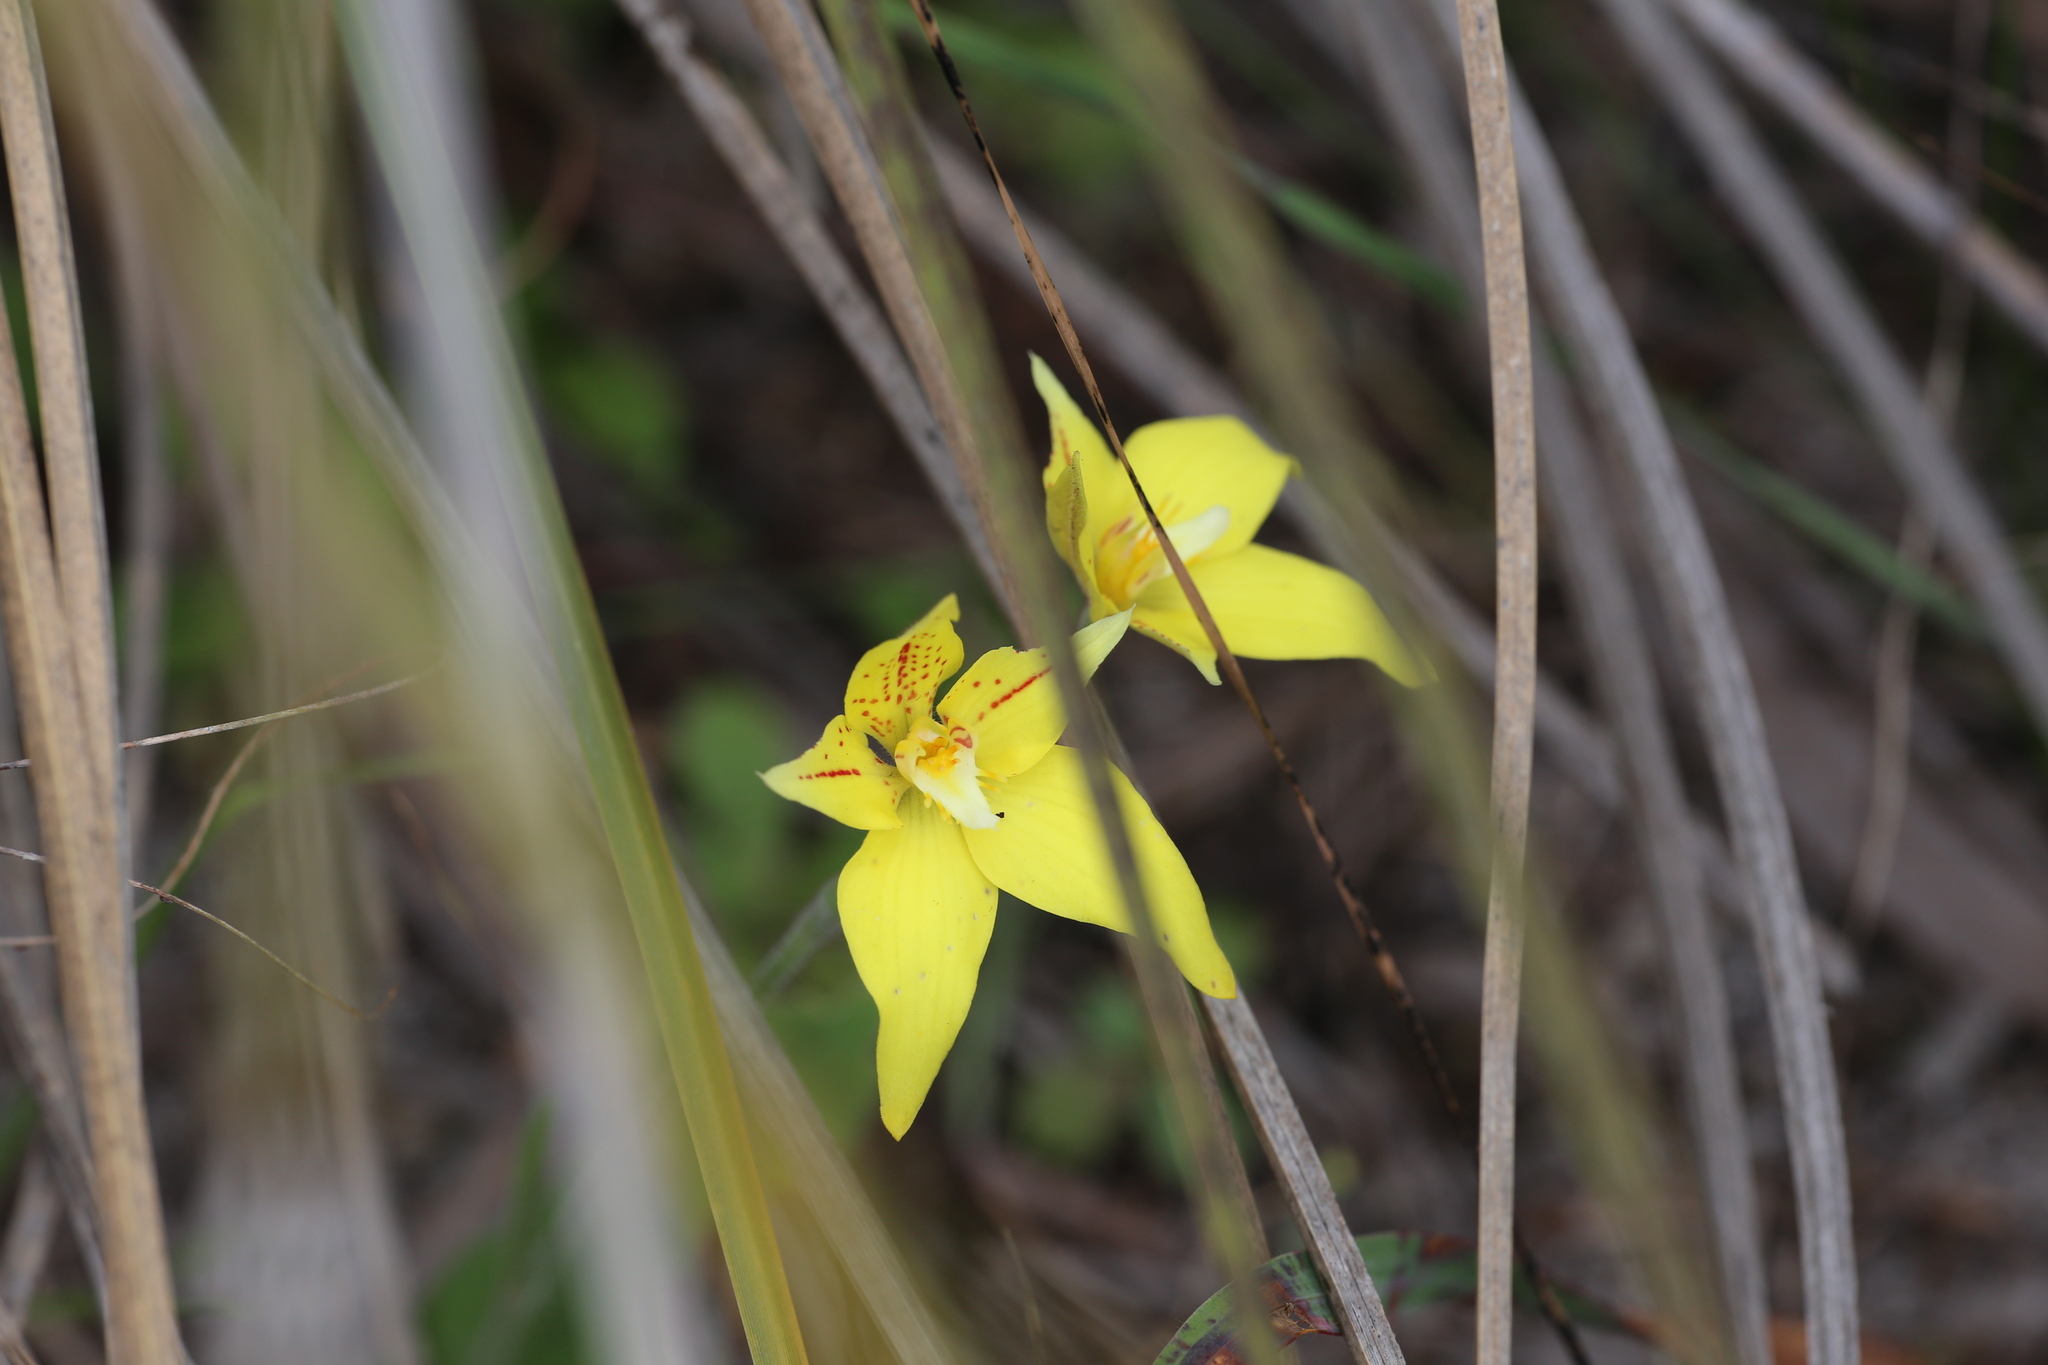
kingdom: Plantae
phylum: Tracheophyta
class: Liliopsida
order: Asparagales
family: Orchidaceae
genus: Caladenia
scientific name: Caladenia flava
